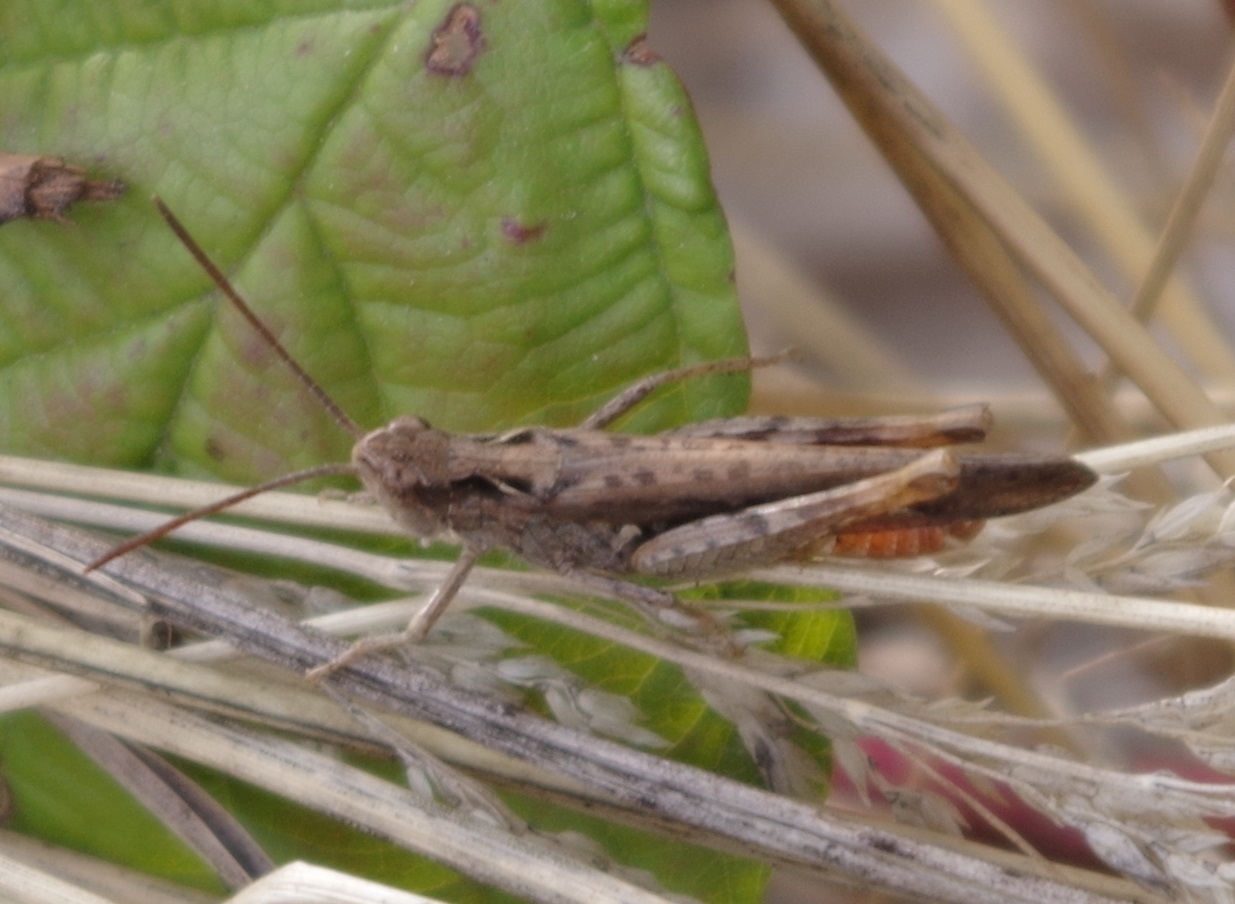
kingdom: Animalia
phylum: Arthropoda
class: Insecta
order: Orthoptera
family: Acrididae
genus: Chorthippus
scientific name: Chorthippus brunneus
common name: Field grasshopper
